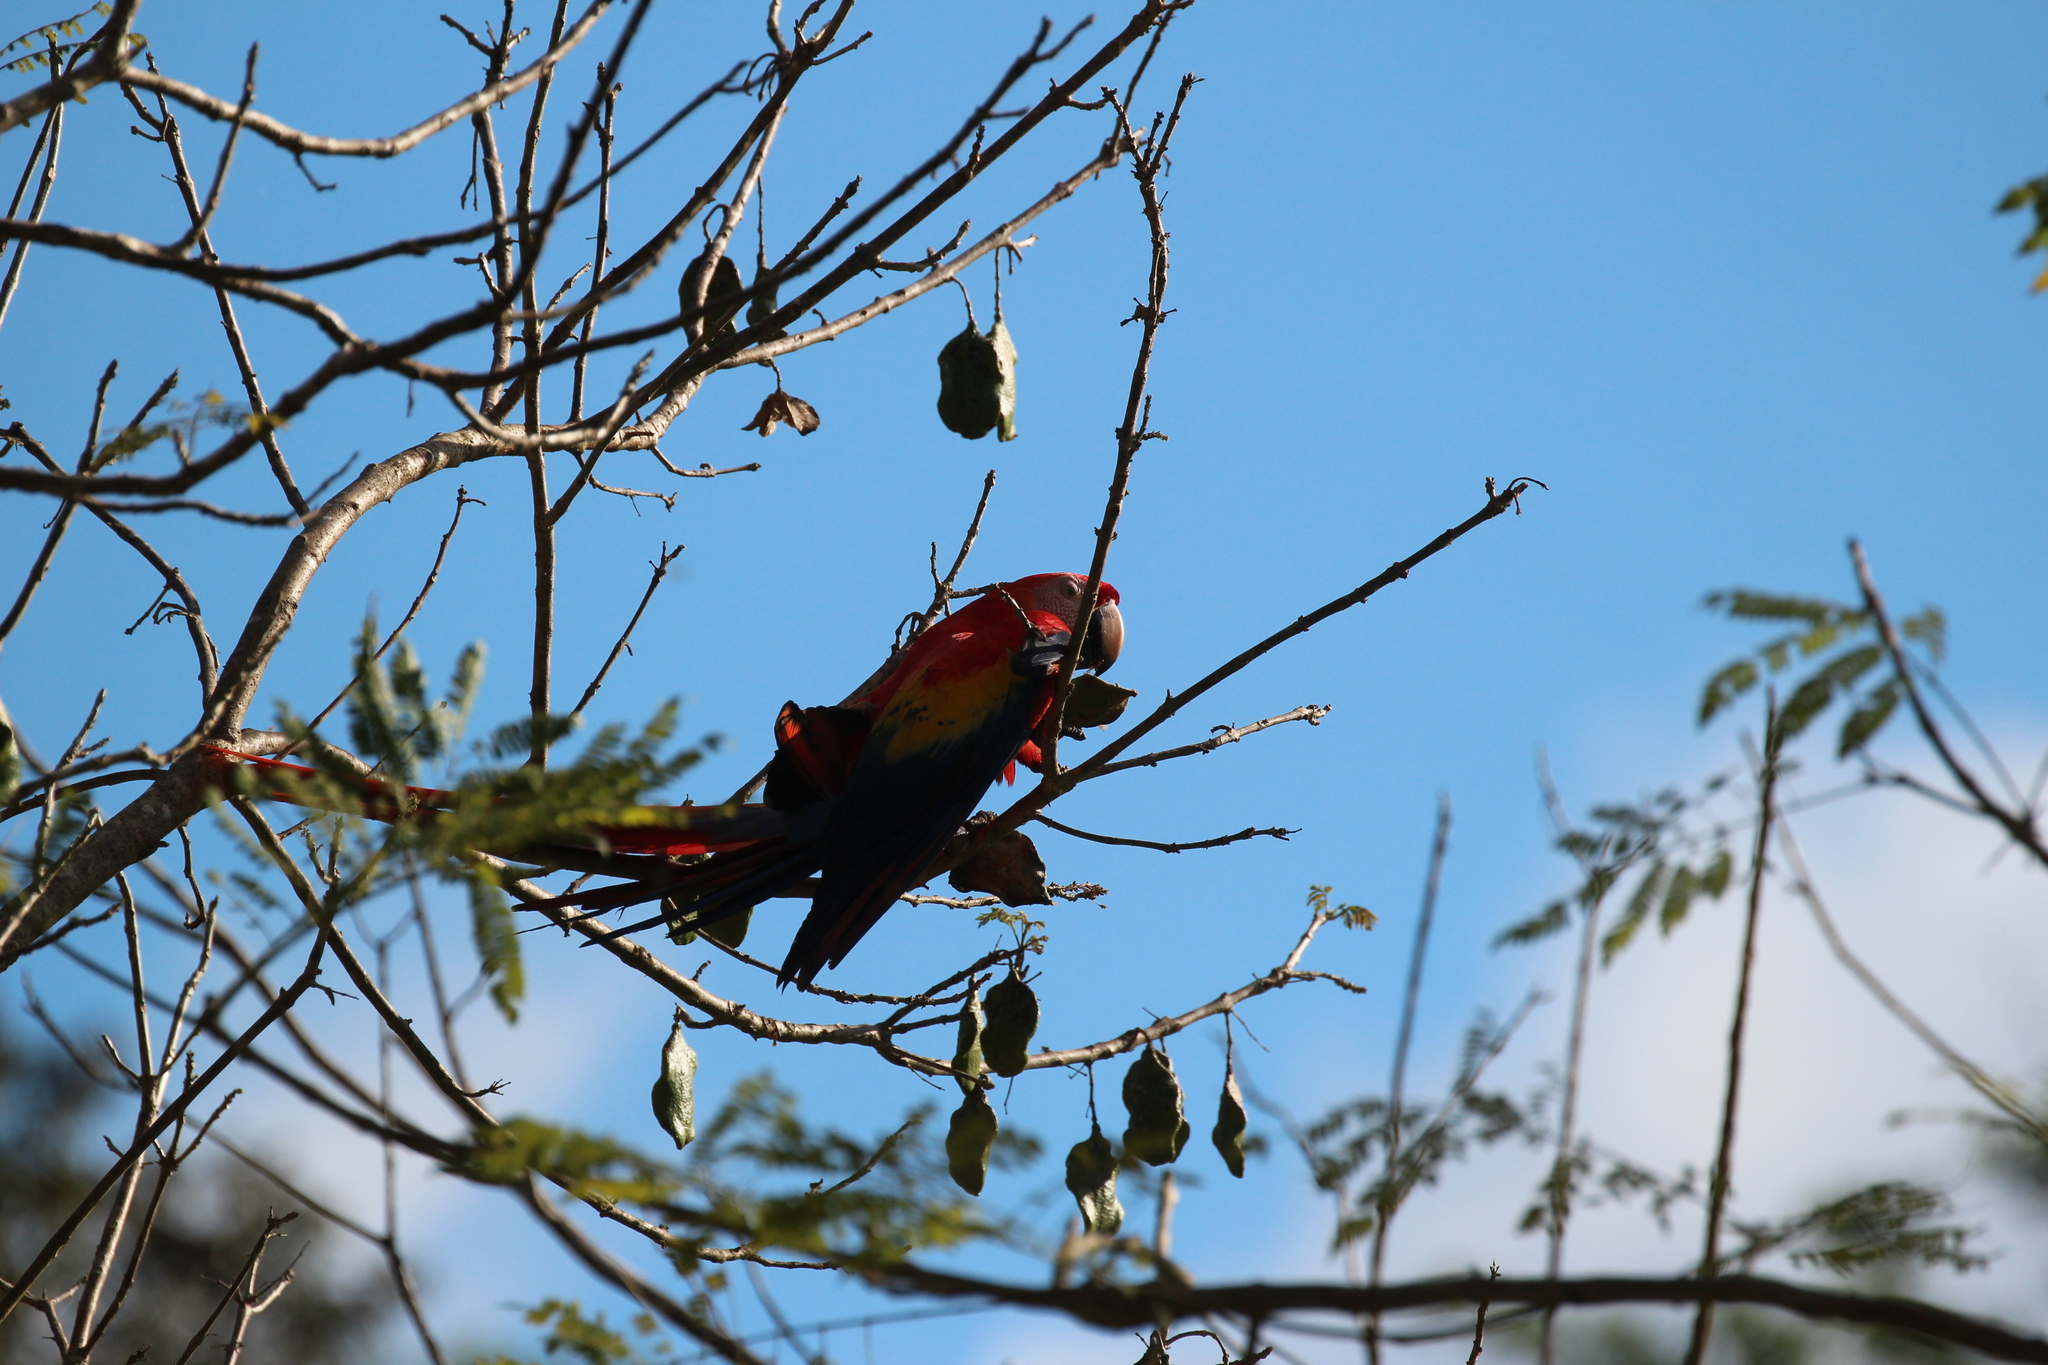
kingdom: Animalia
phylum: Chordata
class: Aves
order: Psittaciformes
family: Psittacidae
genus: Ara
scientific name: Ara macao
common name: Scarlet macaw
